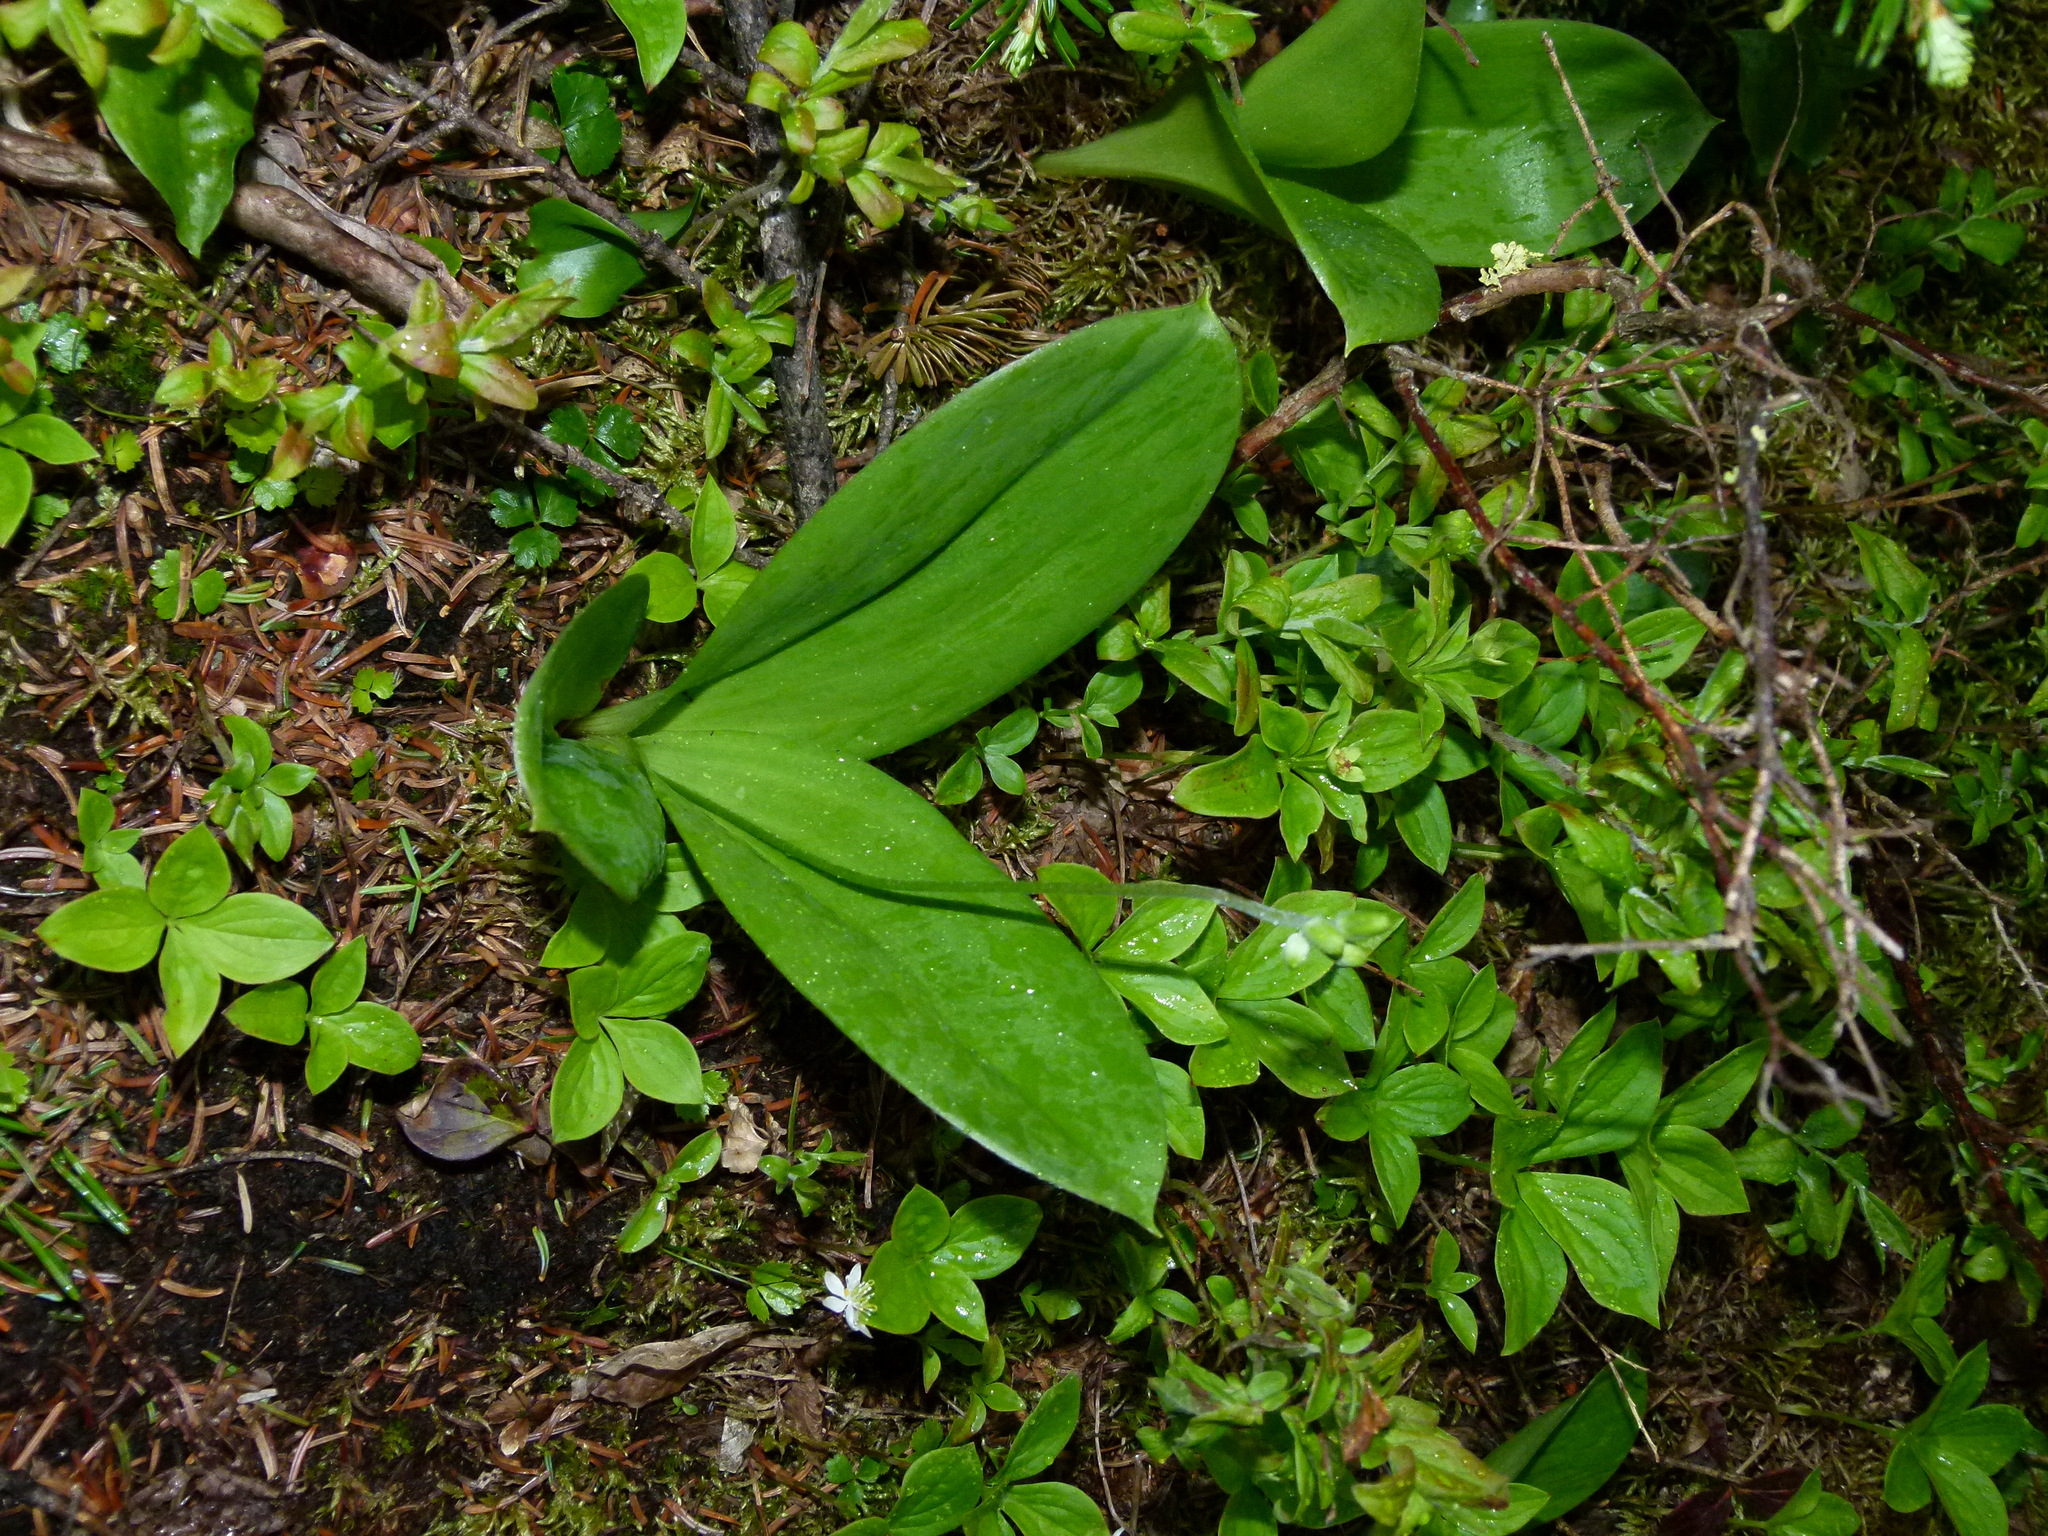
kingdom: Plantae
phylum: Tracheophyta
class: Liliopsida
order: Liliales
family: Liliaceae
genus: Clintonia
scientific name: Clintonia borealis
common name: Yellow clintonia
